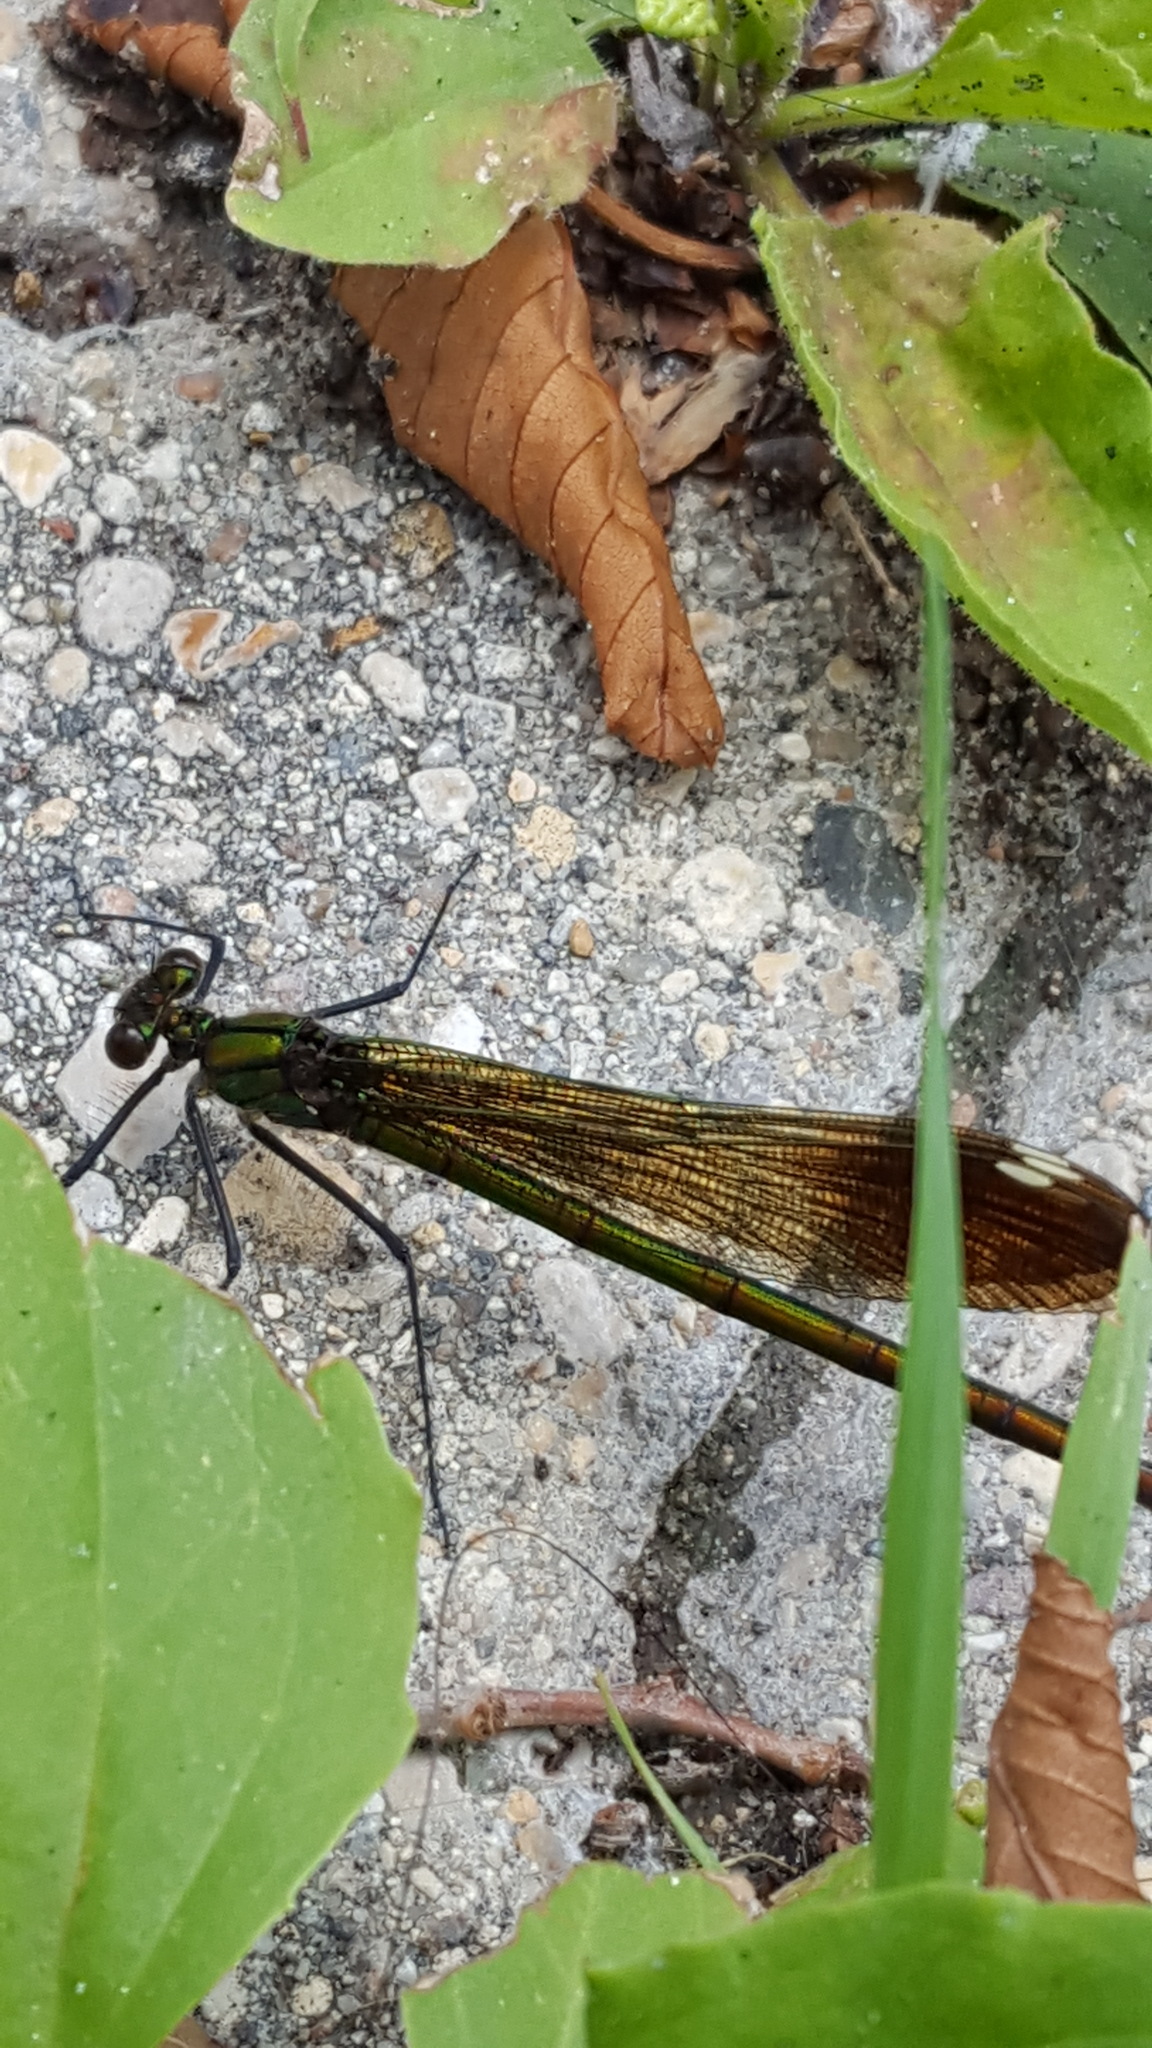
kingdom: Animalia
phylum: Arthropoda
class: Insecta
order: Odonata
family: Calopterygidae
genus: Calopteryx
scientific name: Calopteryx aequabilis
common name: River jewelwing
